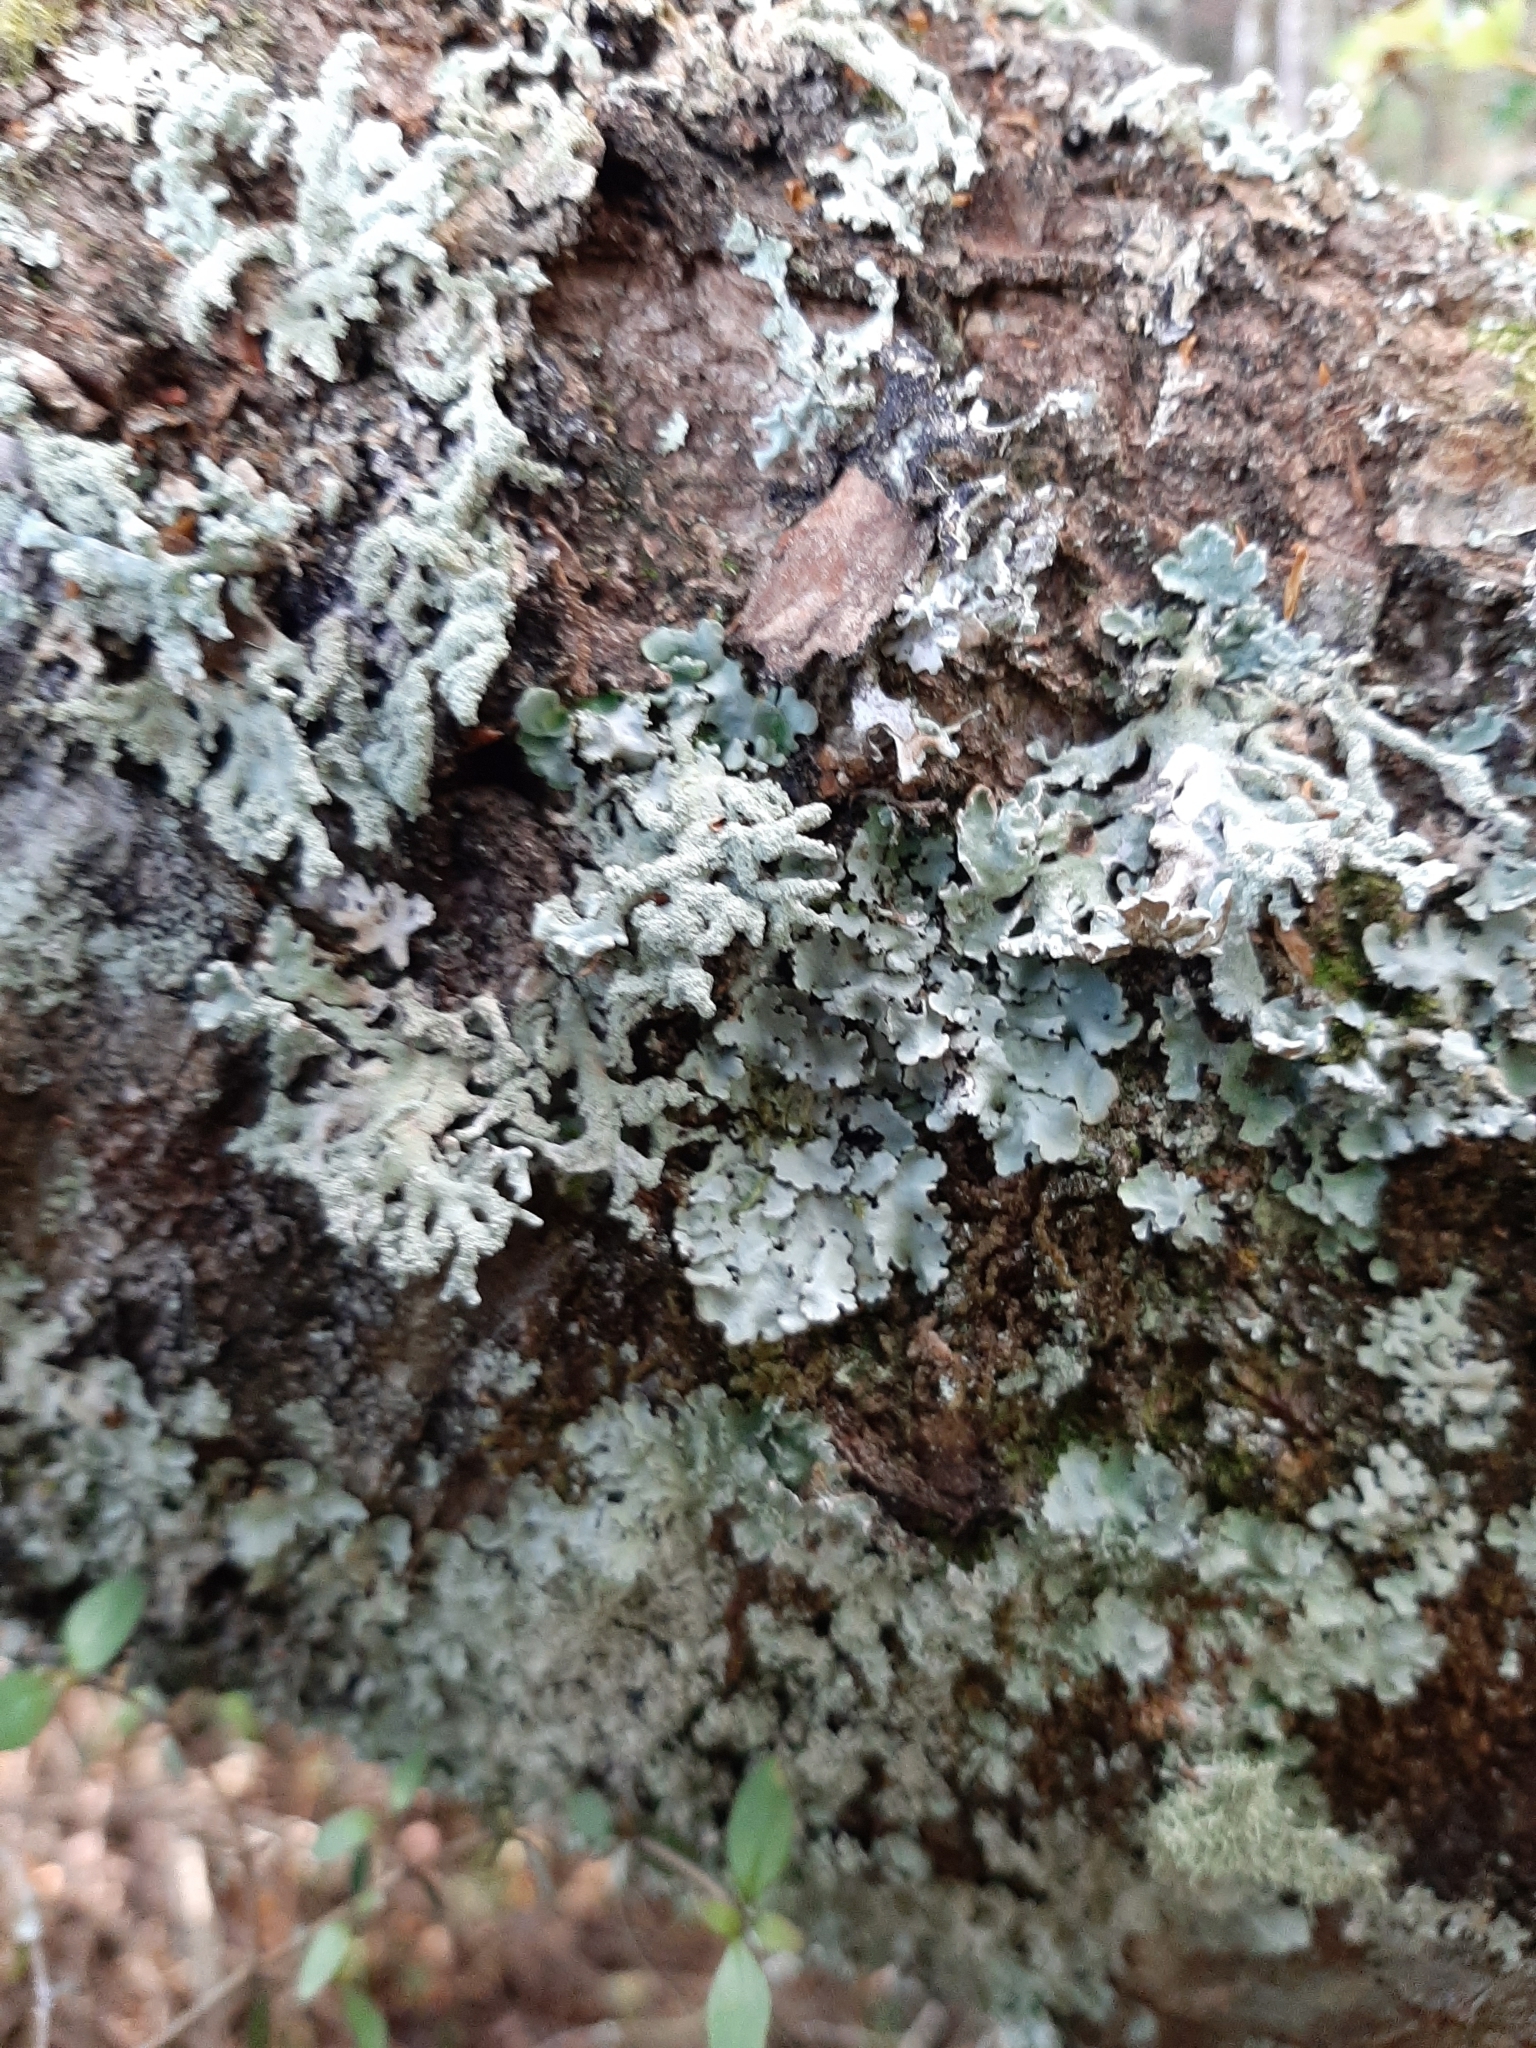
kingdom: Fungi
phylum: Ascomycota
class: Lecanoromycetes
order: Lecanorales
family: Parmeliaceae
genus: Hypogymnia
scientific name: Hypogymnia subphysodes
